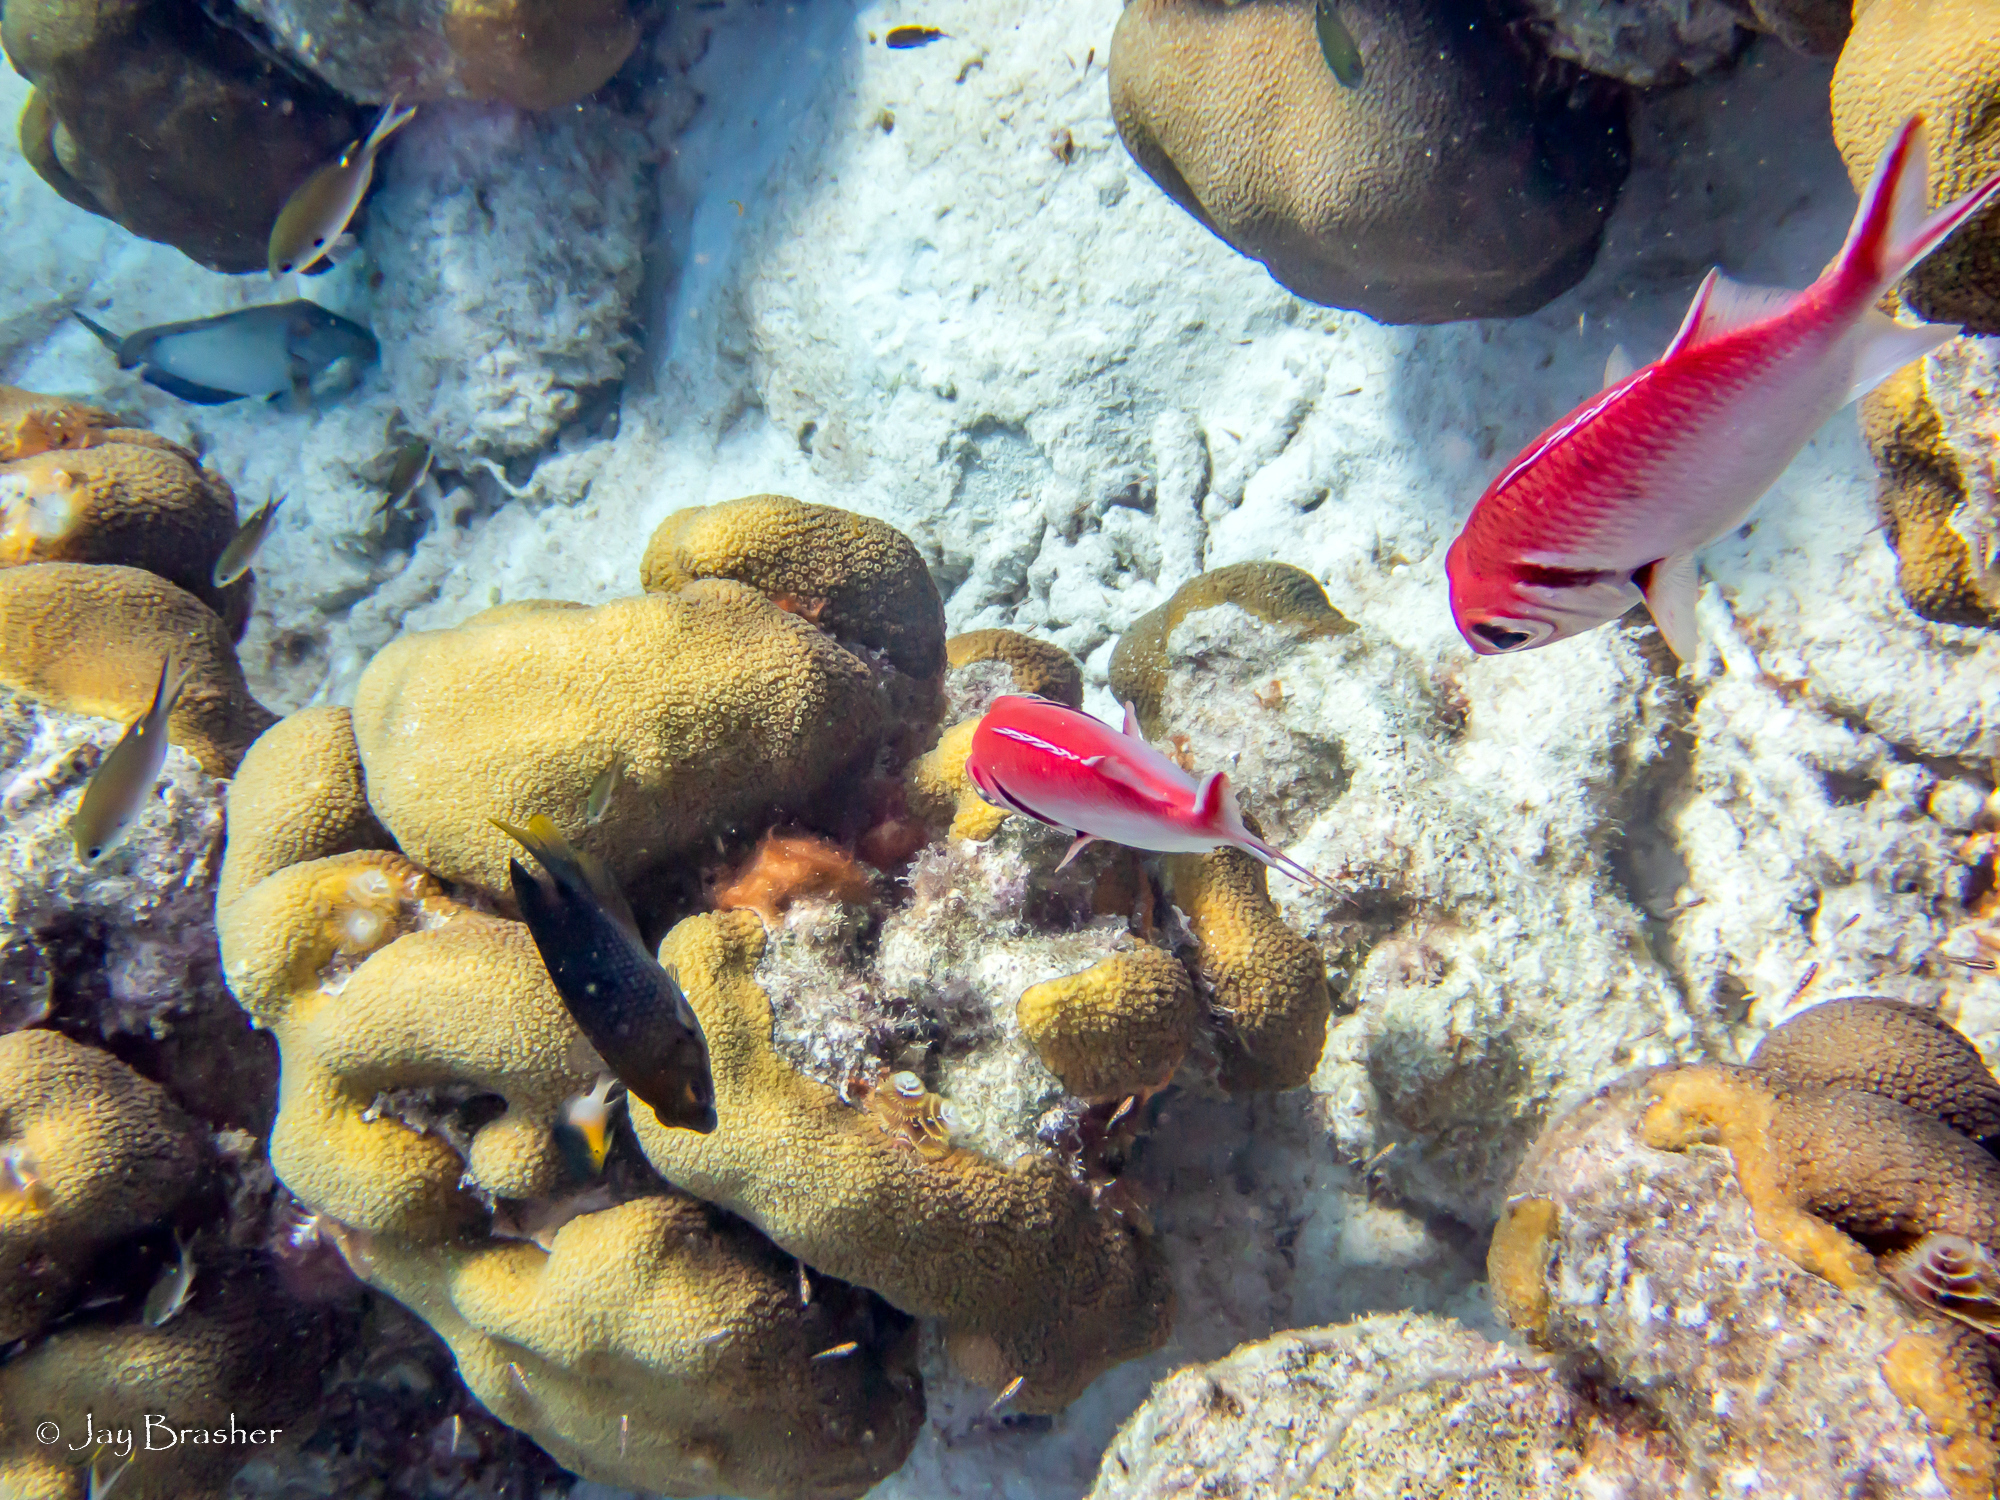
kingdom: Animalia
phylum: Chordata
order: Beryciformes
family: Holocentridae
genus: Myripristis
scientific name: Myripristis jacobus
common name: Blackbar soldierfish
